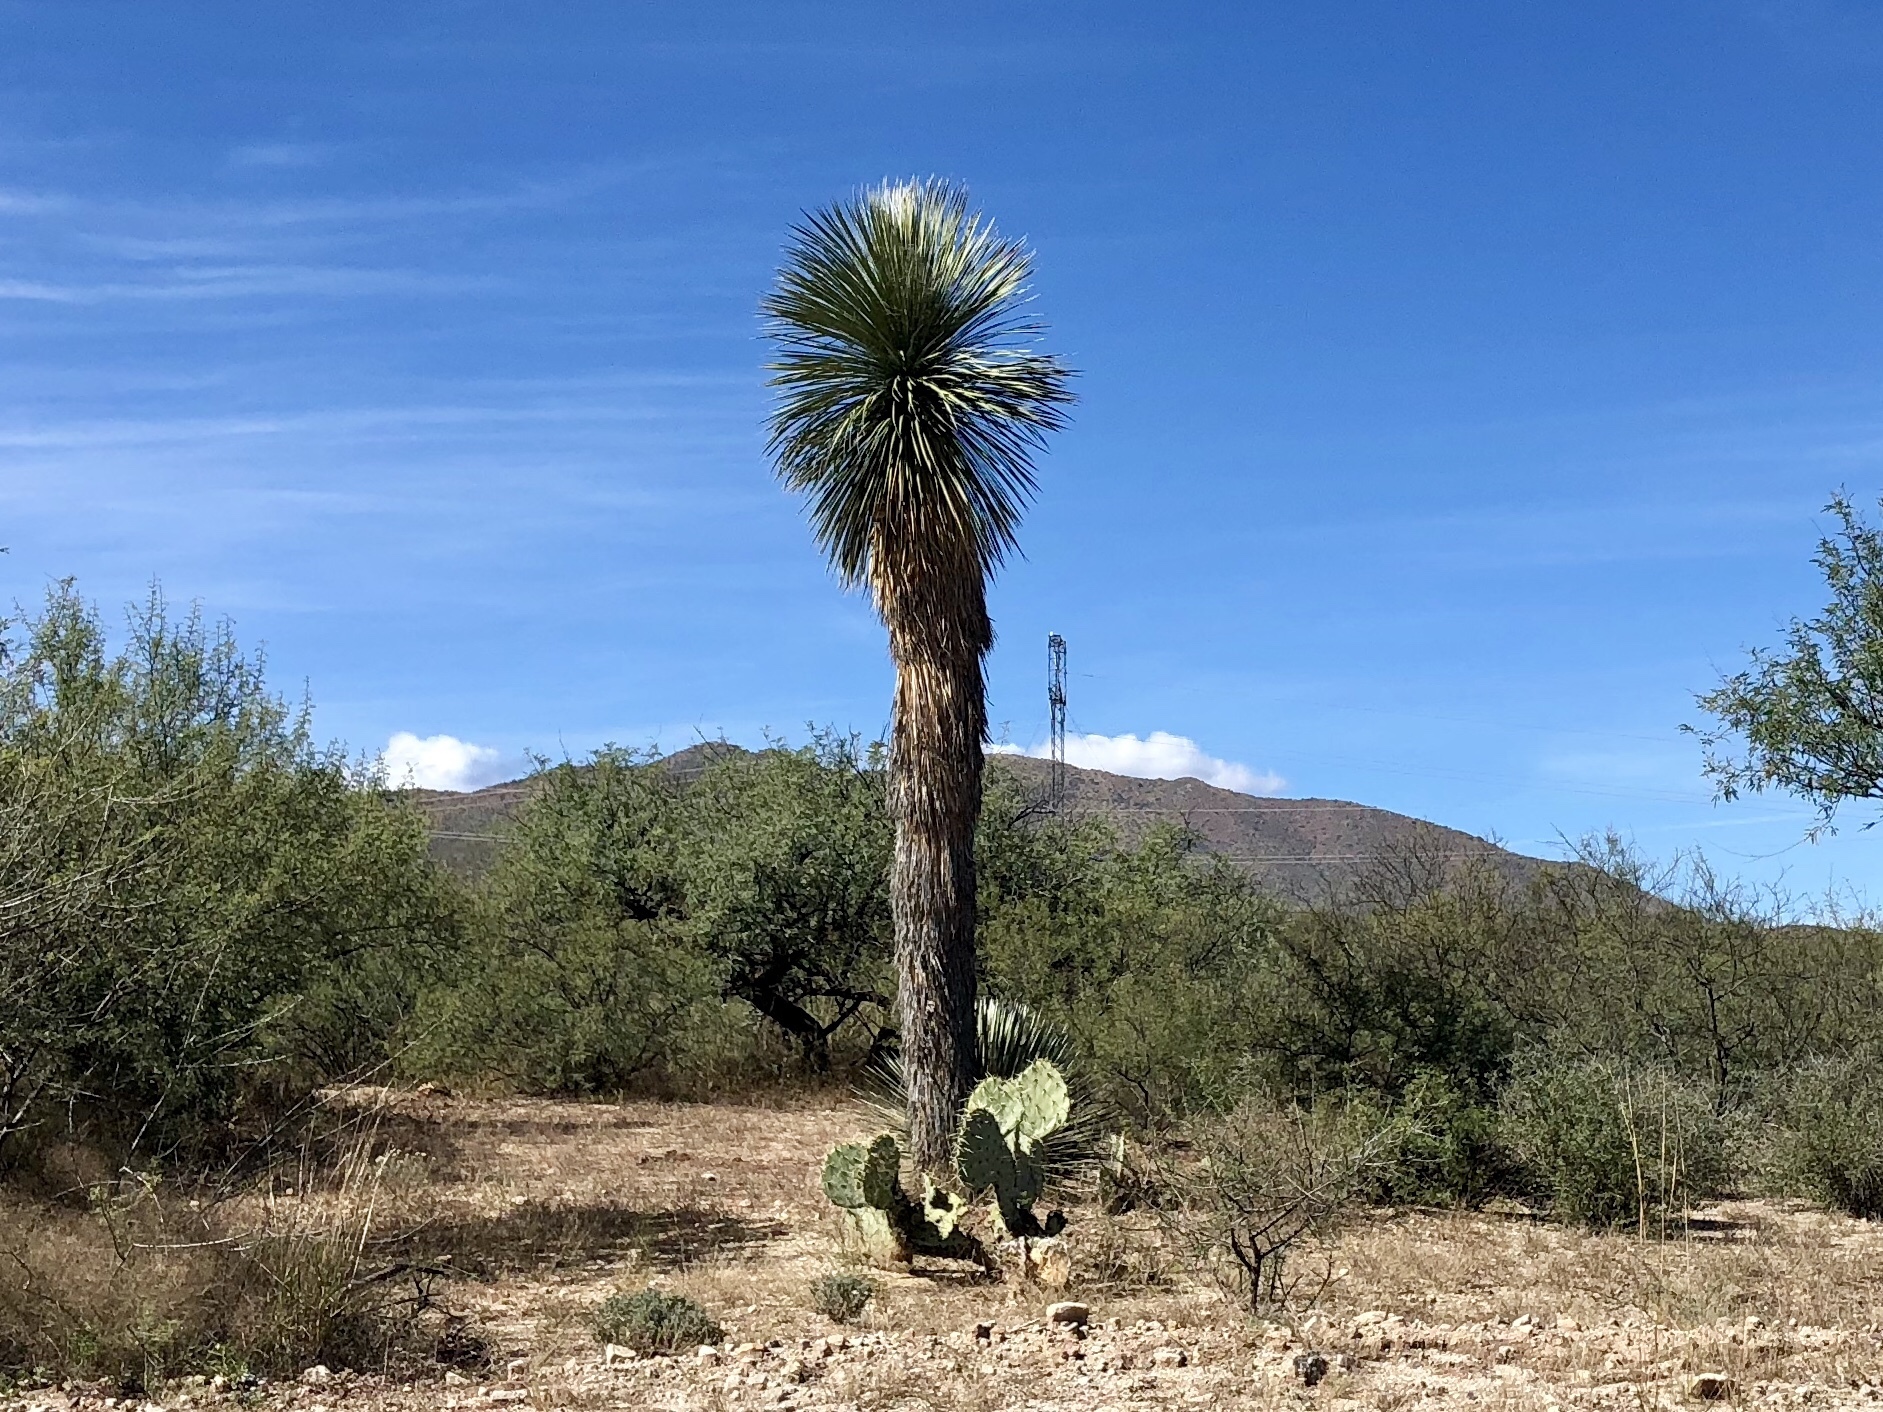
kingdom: Plantae
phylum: Tracheophyta
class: Liliopsida
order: Asparagales
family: Asparagaceae
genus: Yucca
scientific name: Yucca elata
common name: Palmella
